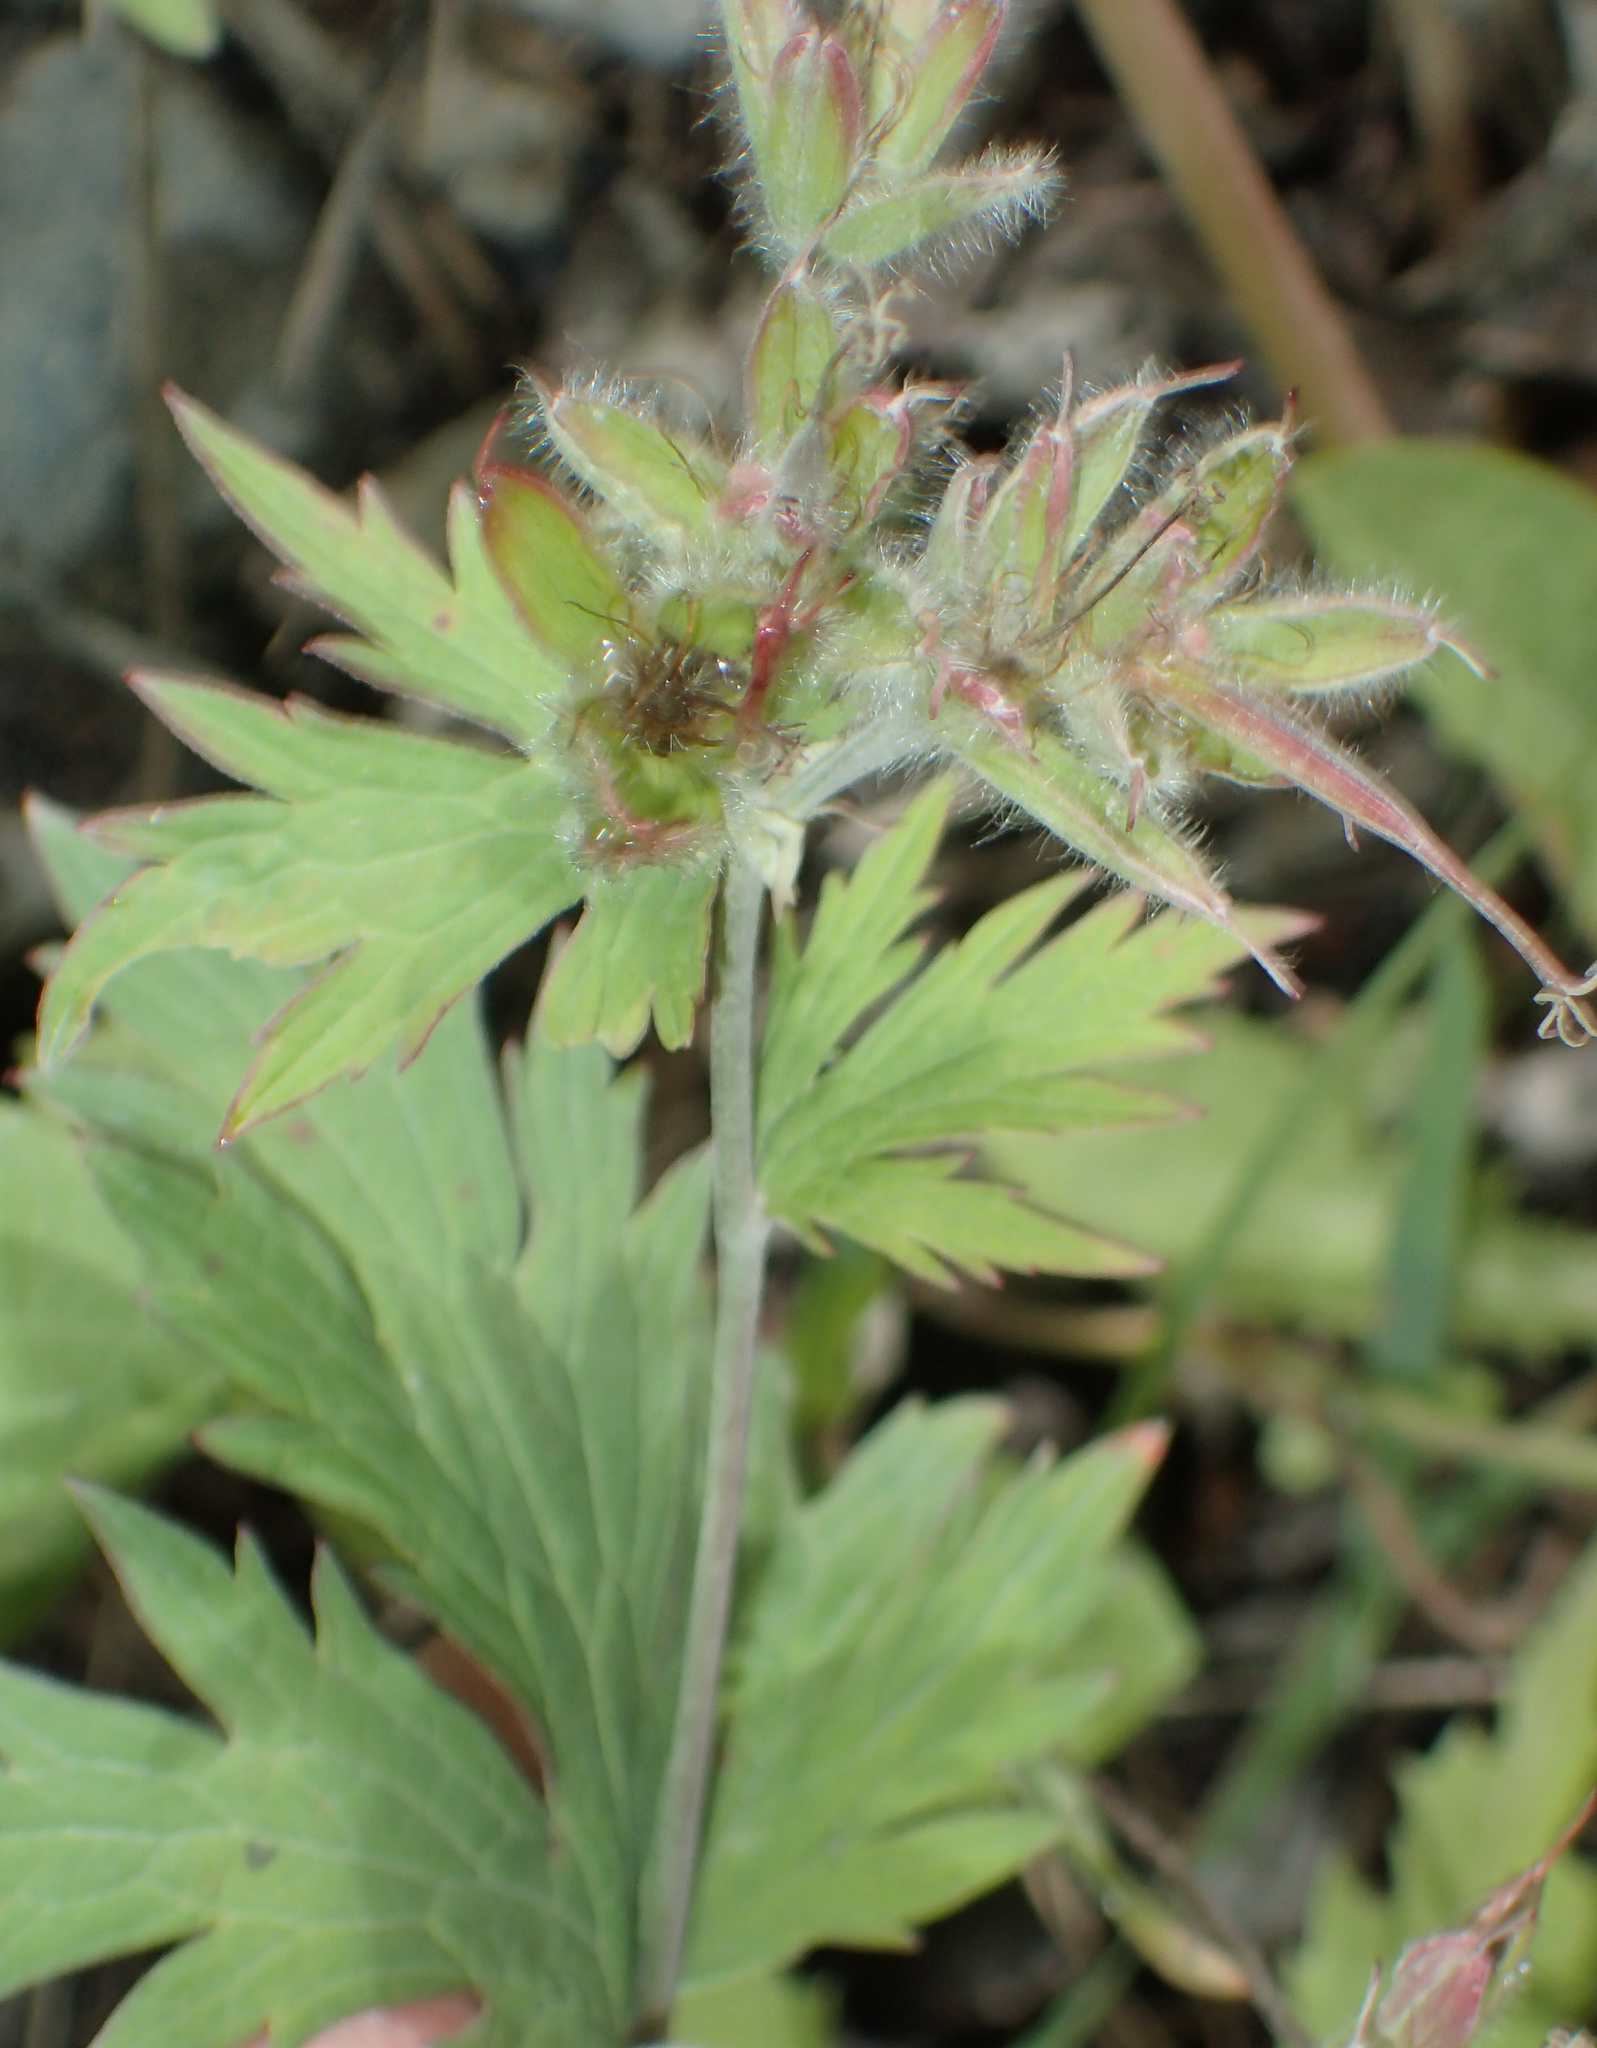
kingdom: Plantae
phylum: Tracheophyta
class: Magnoliopsida
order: Geraniales
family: Geraniaceae
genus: Geranium
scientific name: Geranium erianthum
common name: Northern crane's-bill
